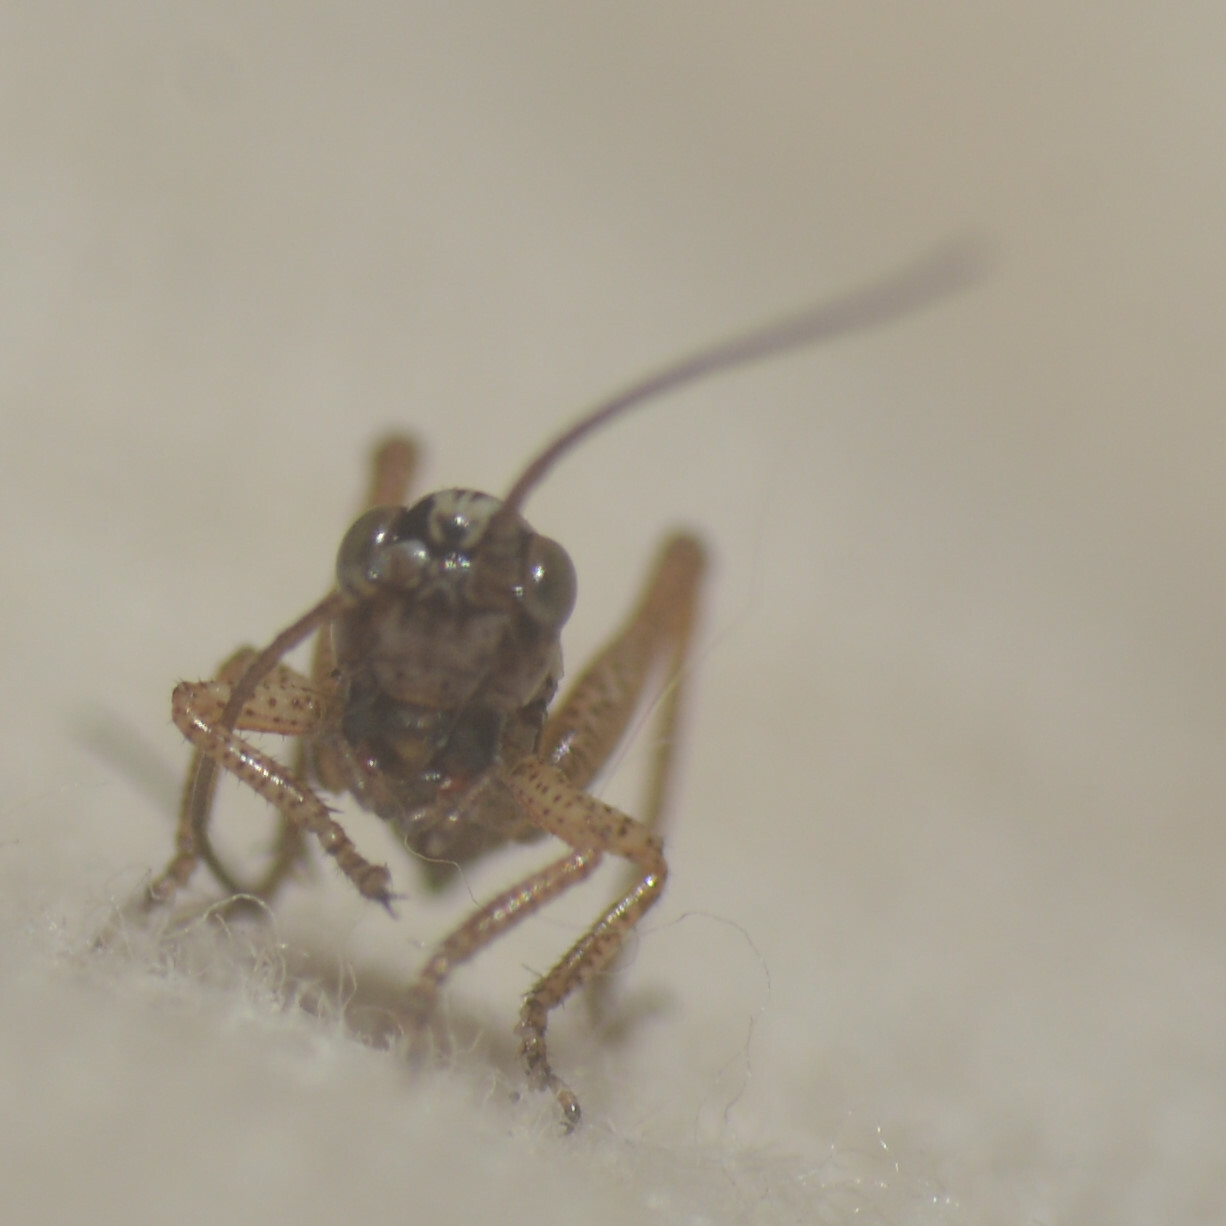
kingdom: Animalia
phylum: Arthropoda
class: Insecta
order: Orthoptera
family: Tettigoniidae
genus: Roeseliana
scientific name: Roeseliana roeselii
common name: Roesel's bush cricket
